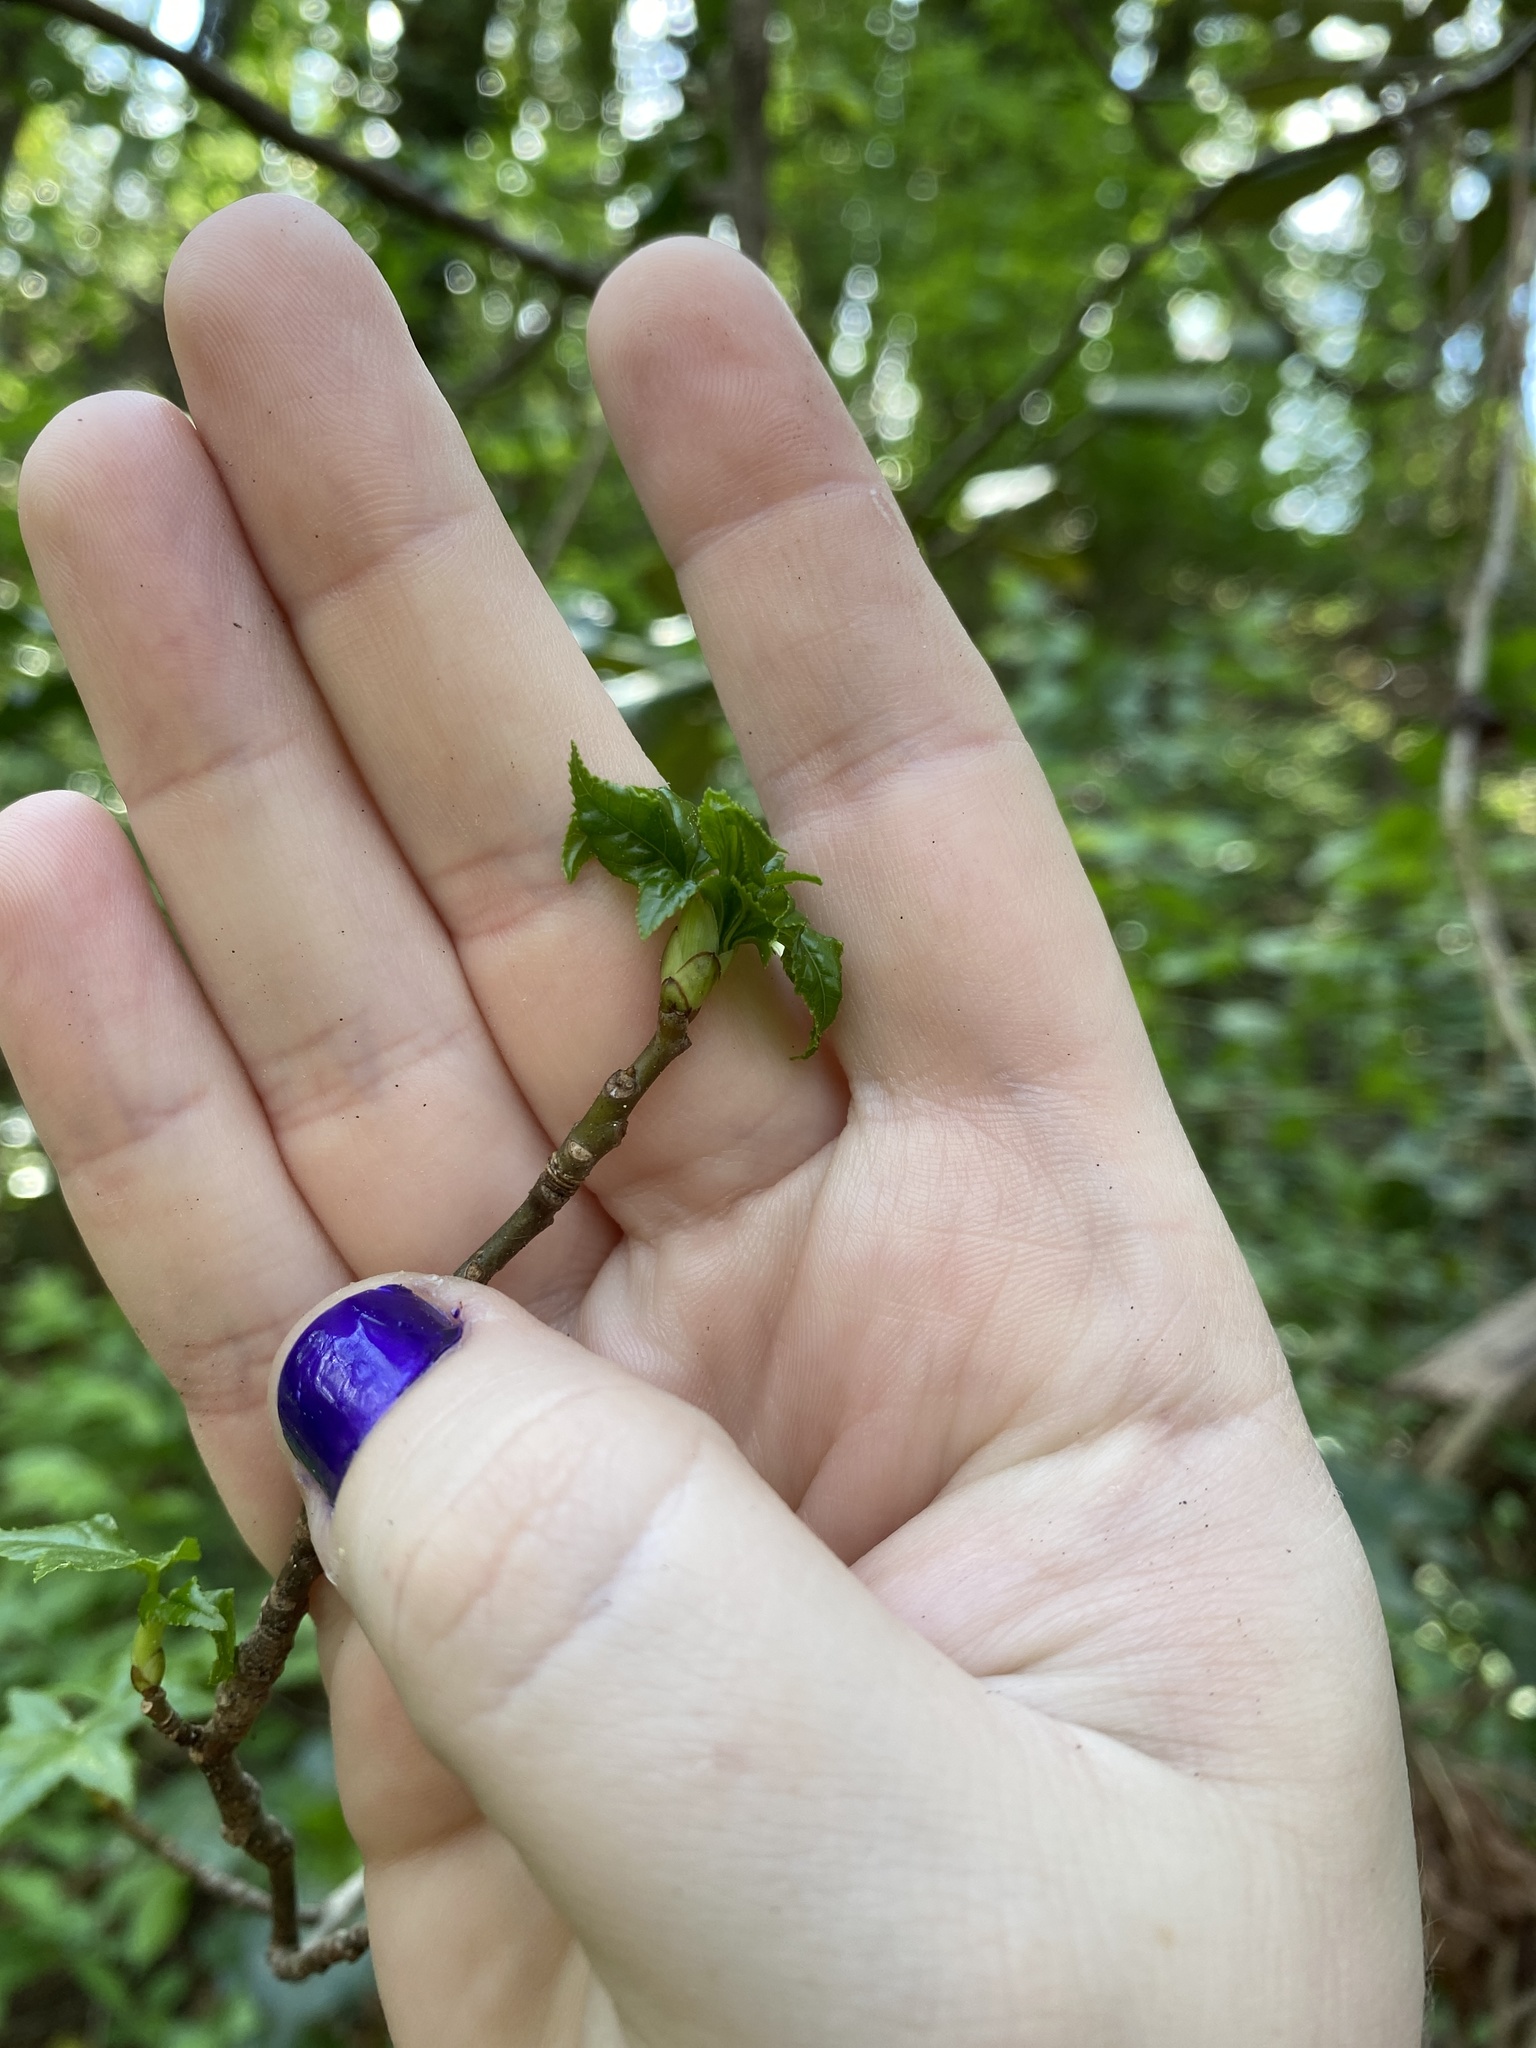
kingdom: Plantae
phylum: Tracheophyta
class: Magnoliopsida
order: Saxifragales
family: Altingiaceae
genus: Liquidambar
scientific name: Liquidambar styraciflua
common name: Sweet gum
